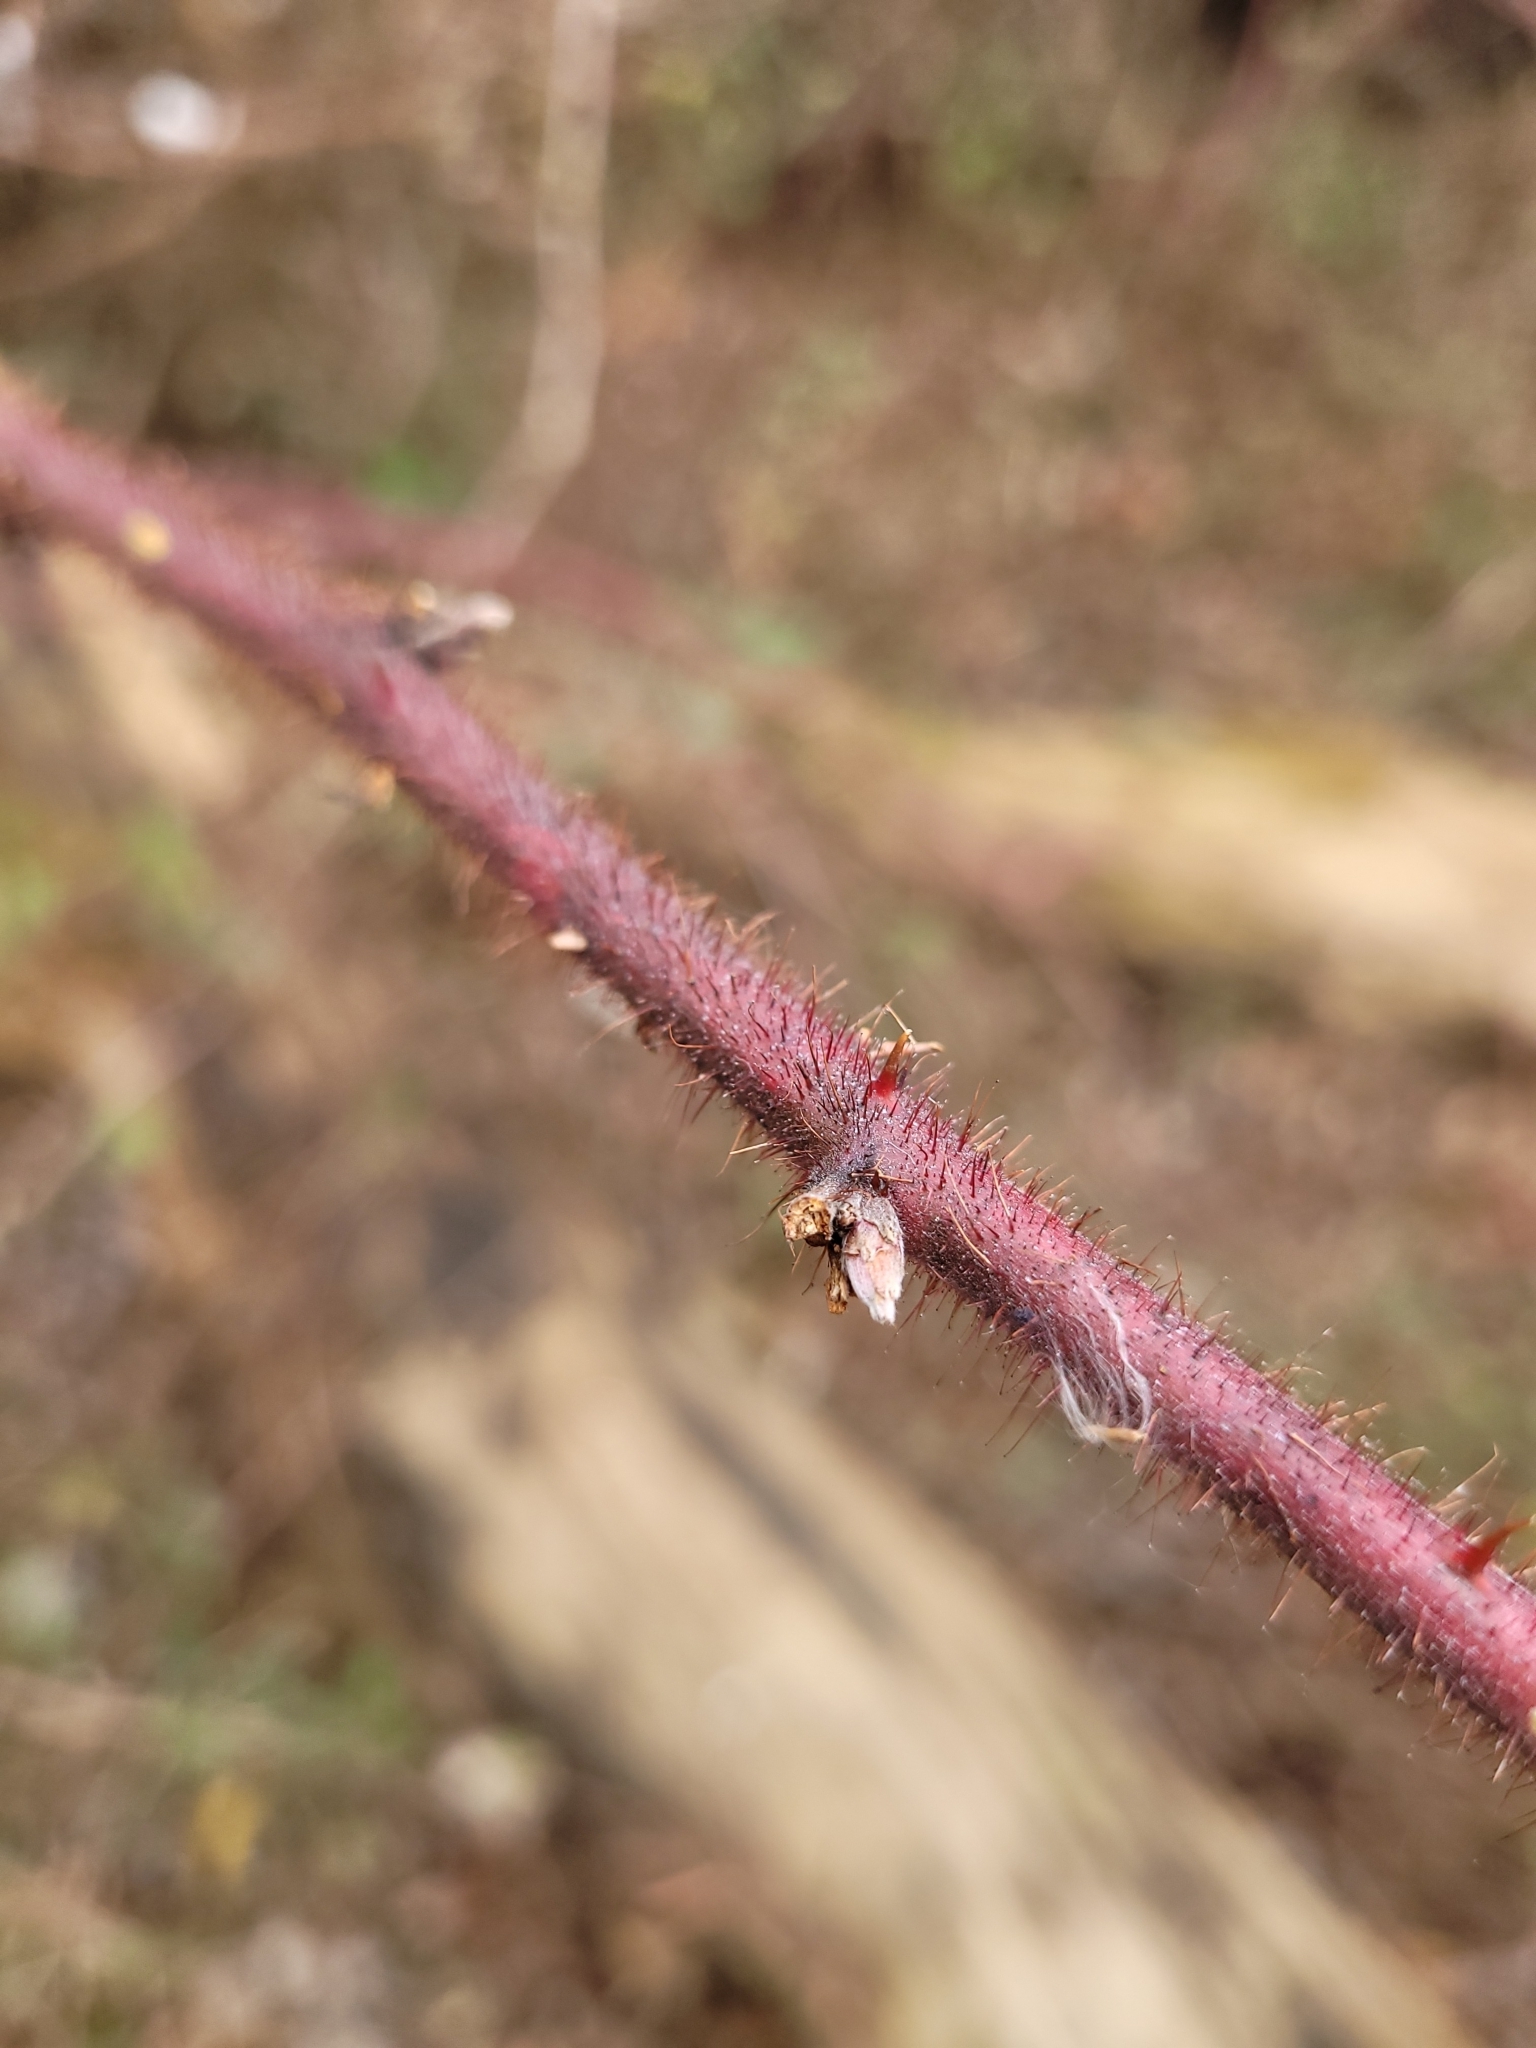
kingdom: Plantae
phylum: Tracheophyta
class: Magnoliopsida
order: Rosales
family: Rosaceae
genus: Rubus
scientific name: Rubus phoenicolasius
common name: Japanese wineberry
